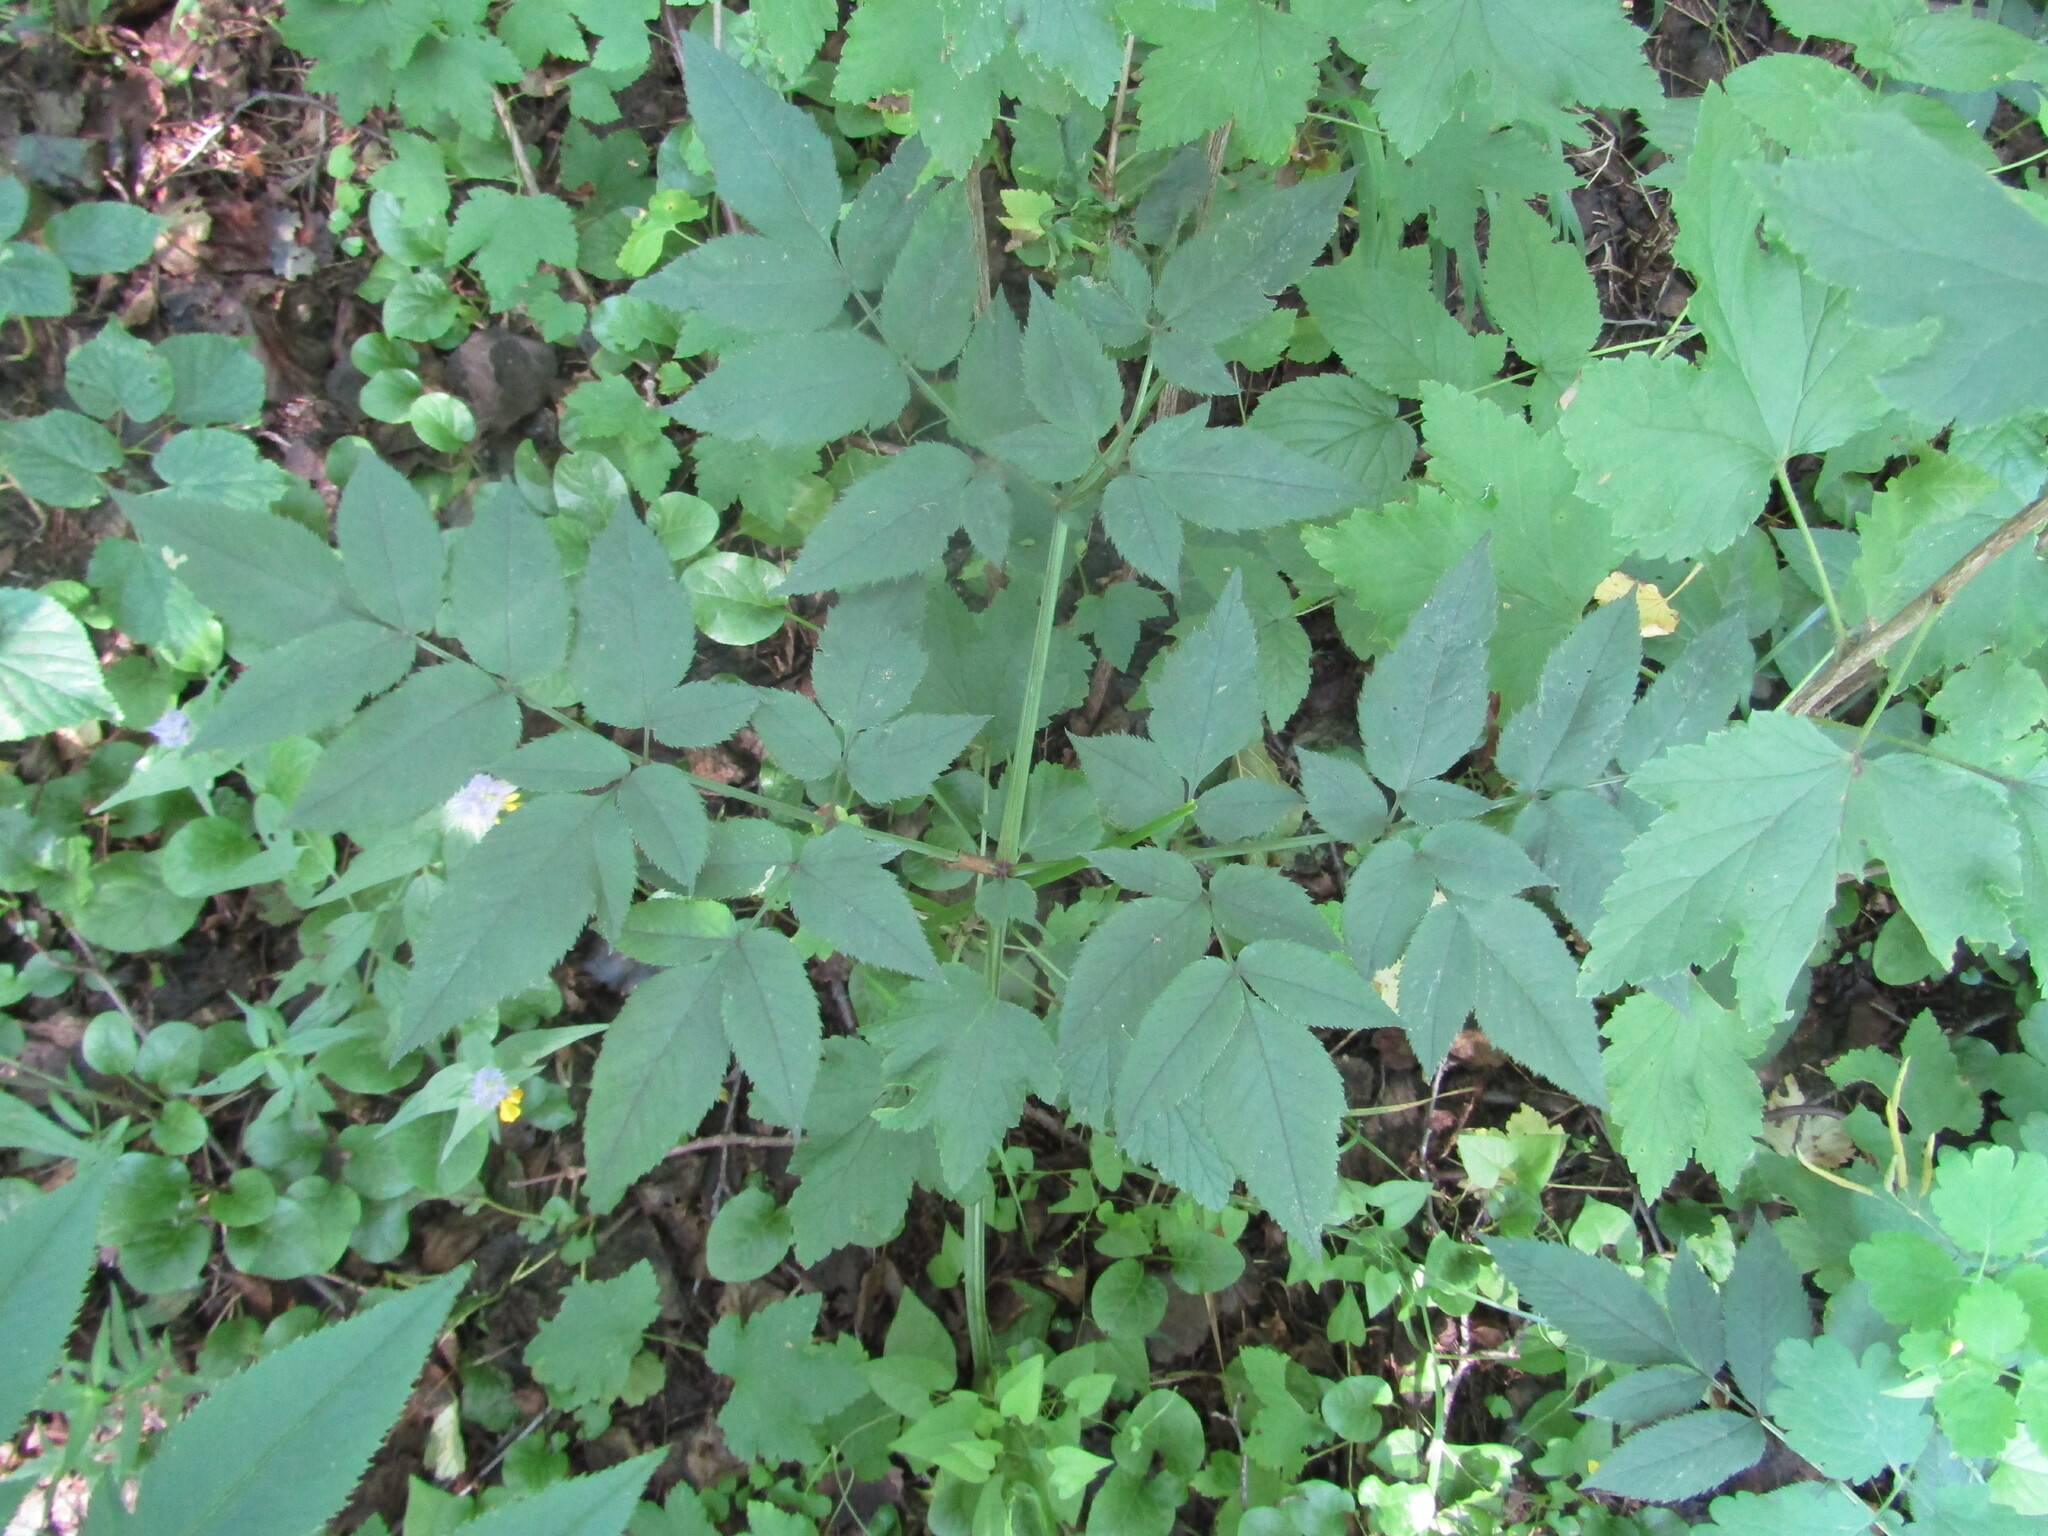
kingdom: Plantae
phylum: Tracheophyta
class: Magnoliopsida
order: Apiales
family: Apiaceae
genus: Angelica
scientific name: Angelica sylvestris
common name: Wild angelica
